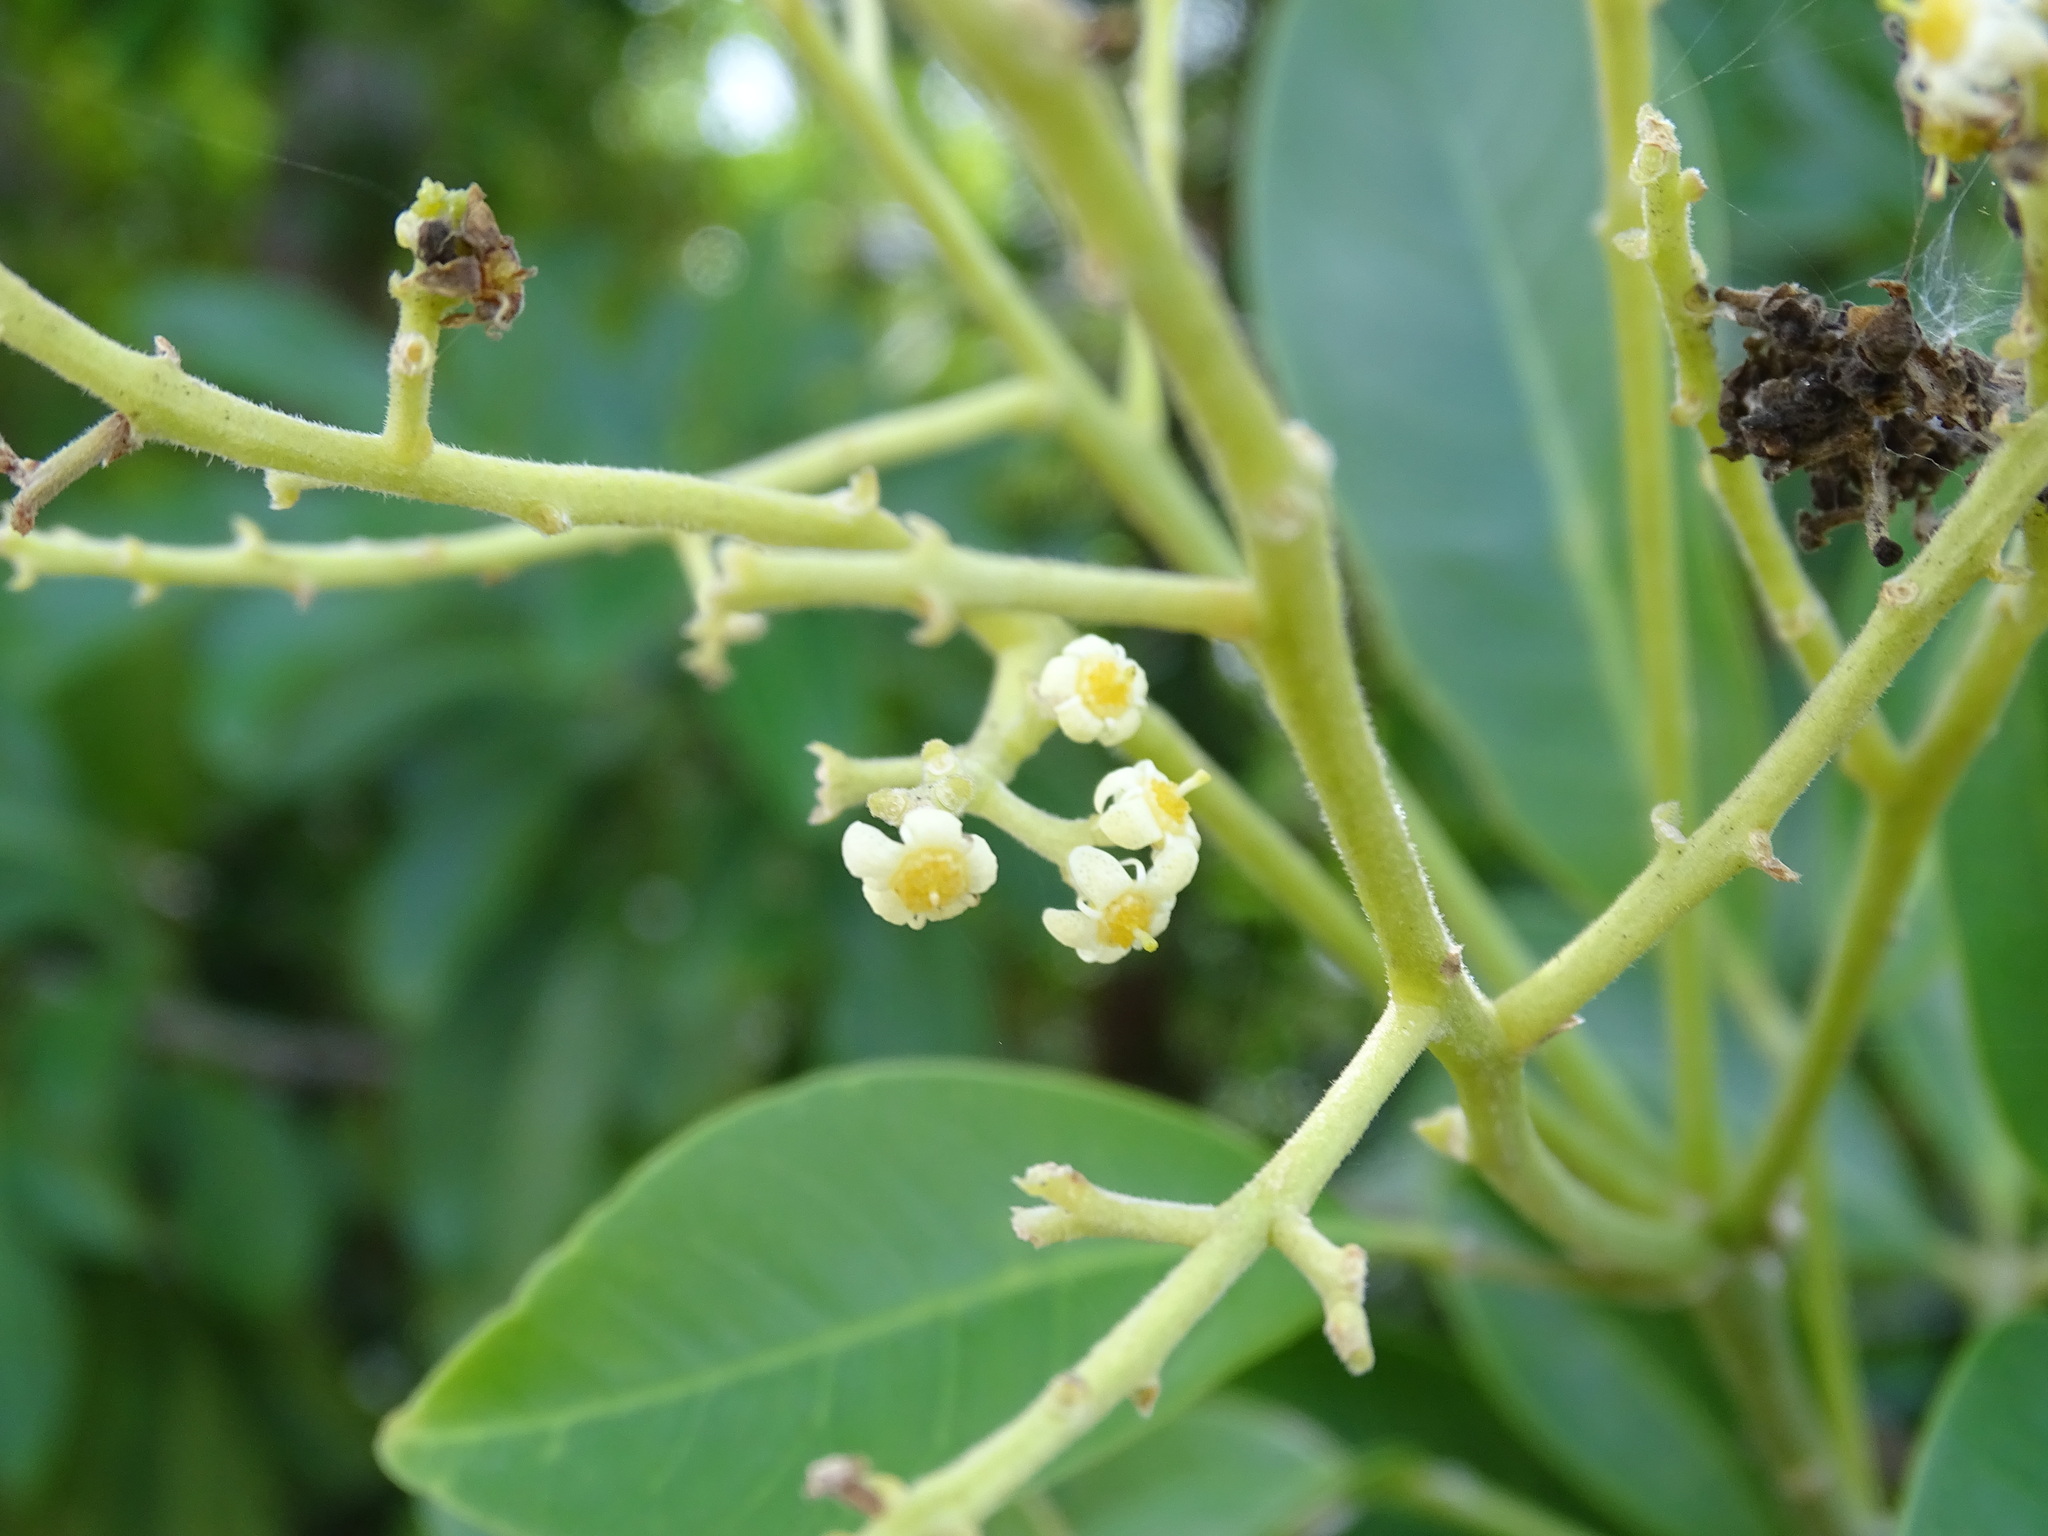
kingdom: Plantae
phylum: Tracheophyta
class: Magnoliopsida
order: Sapindales
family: Rutaceae
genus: Esenbeckia
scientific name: Esenbeckia pentaphylla
